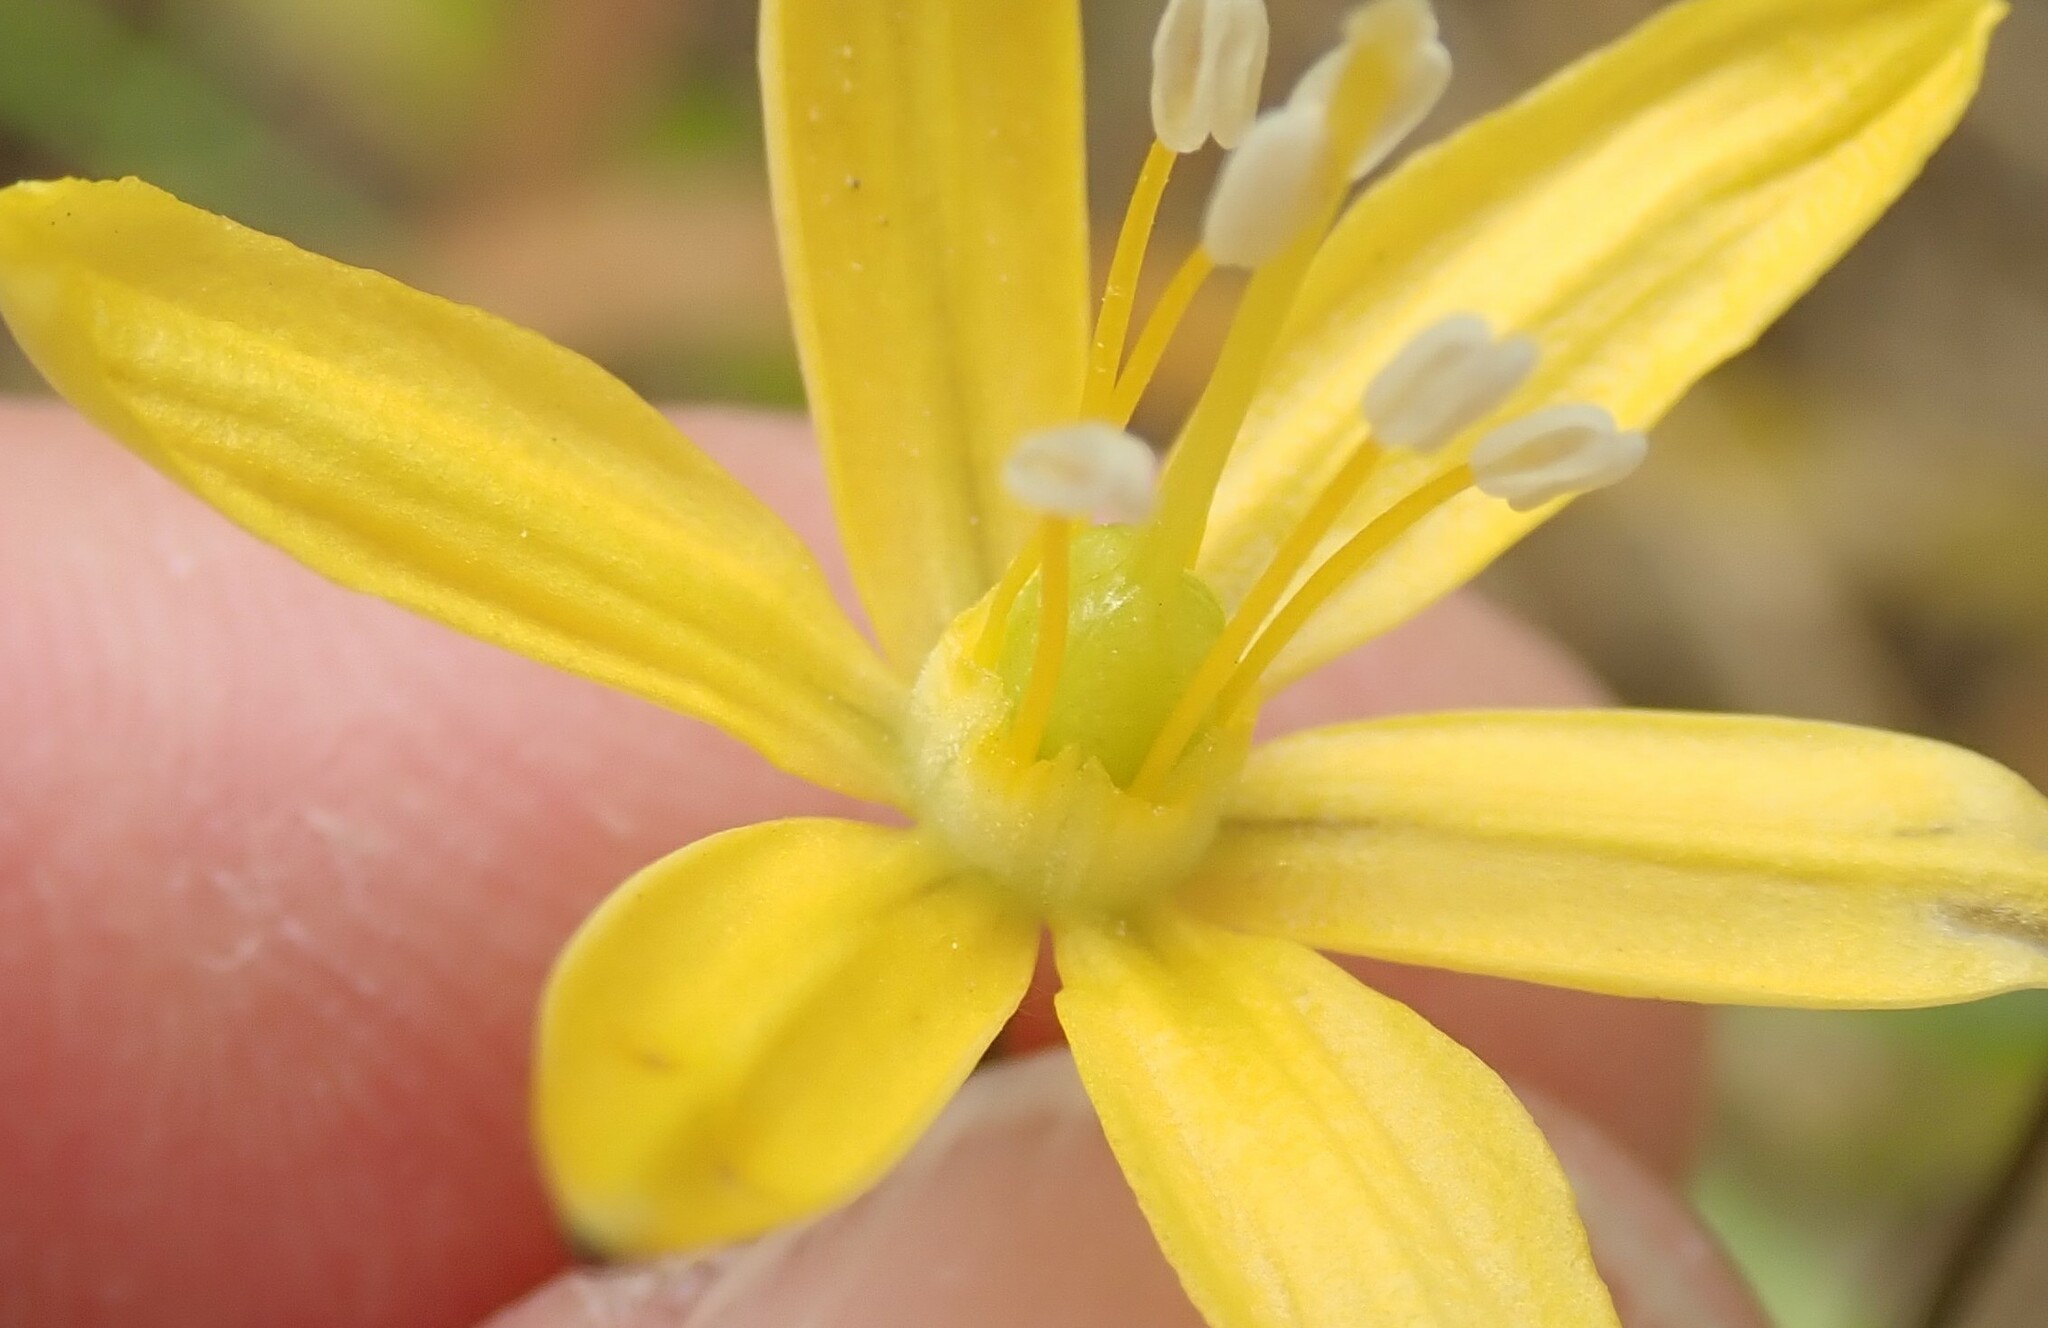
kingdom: Plantae
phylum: Tracheophyta
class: Liliopsida
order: Asparagales
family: Asparagaceae
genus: Bloomeria
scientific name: Bloomeria crocea
